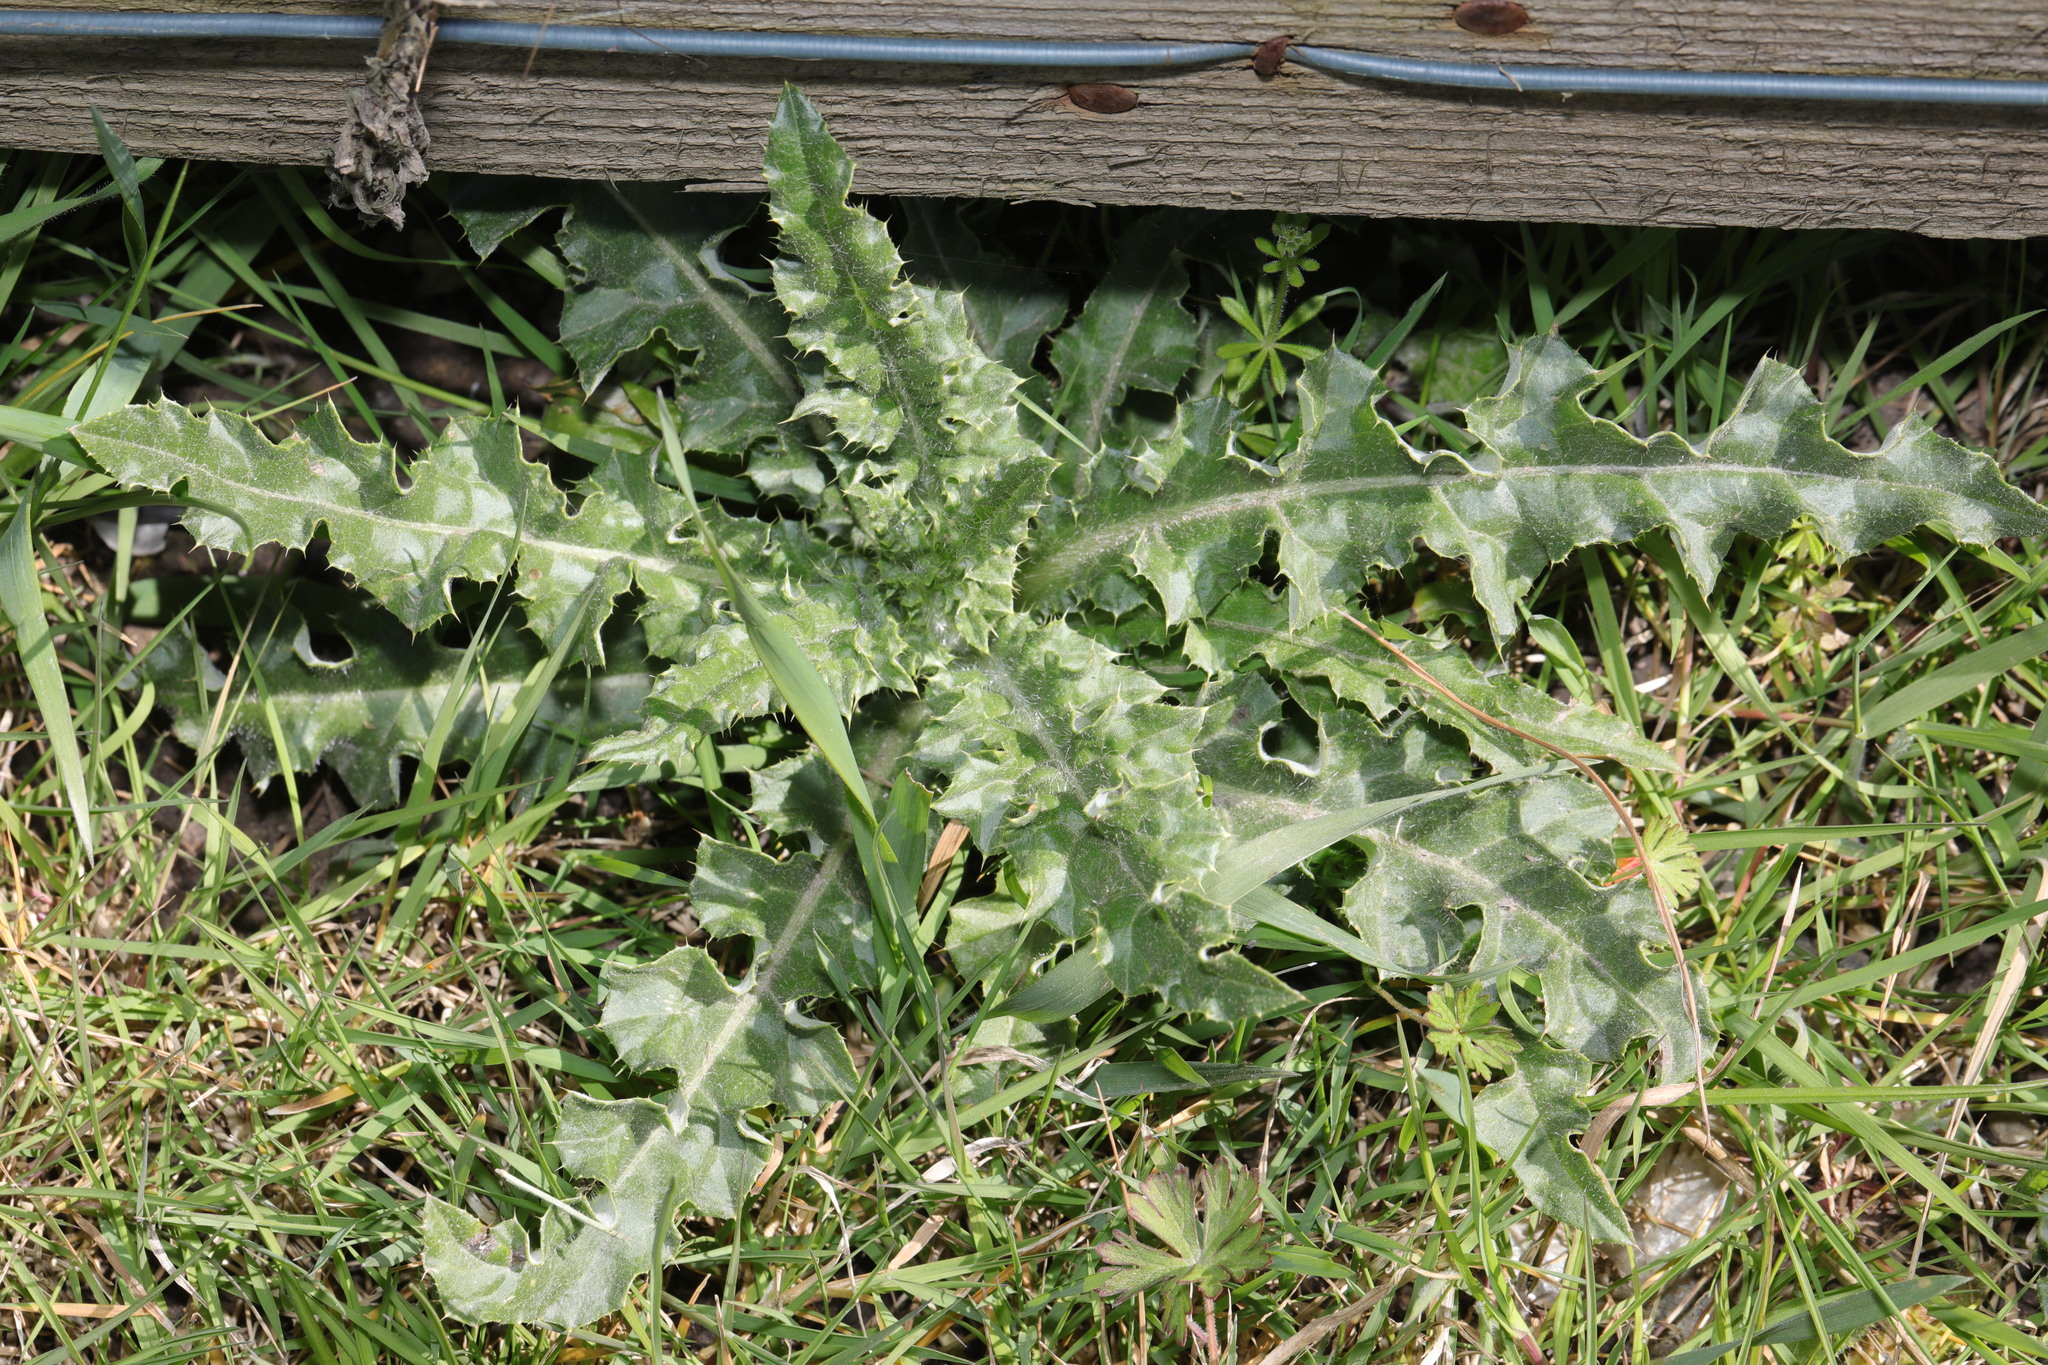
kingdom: Plantae
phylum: Tracheophyta
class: Magnoliopsida
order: Asterales
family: Asteraceae
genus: Cirsium
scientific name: Cirsium arvense
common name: Creeping thistle
